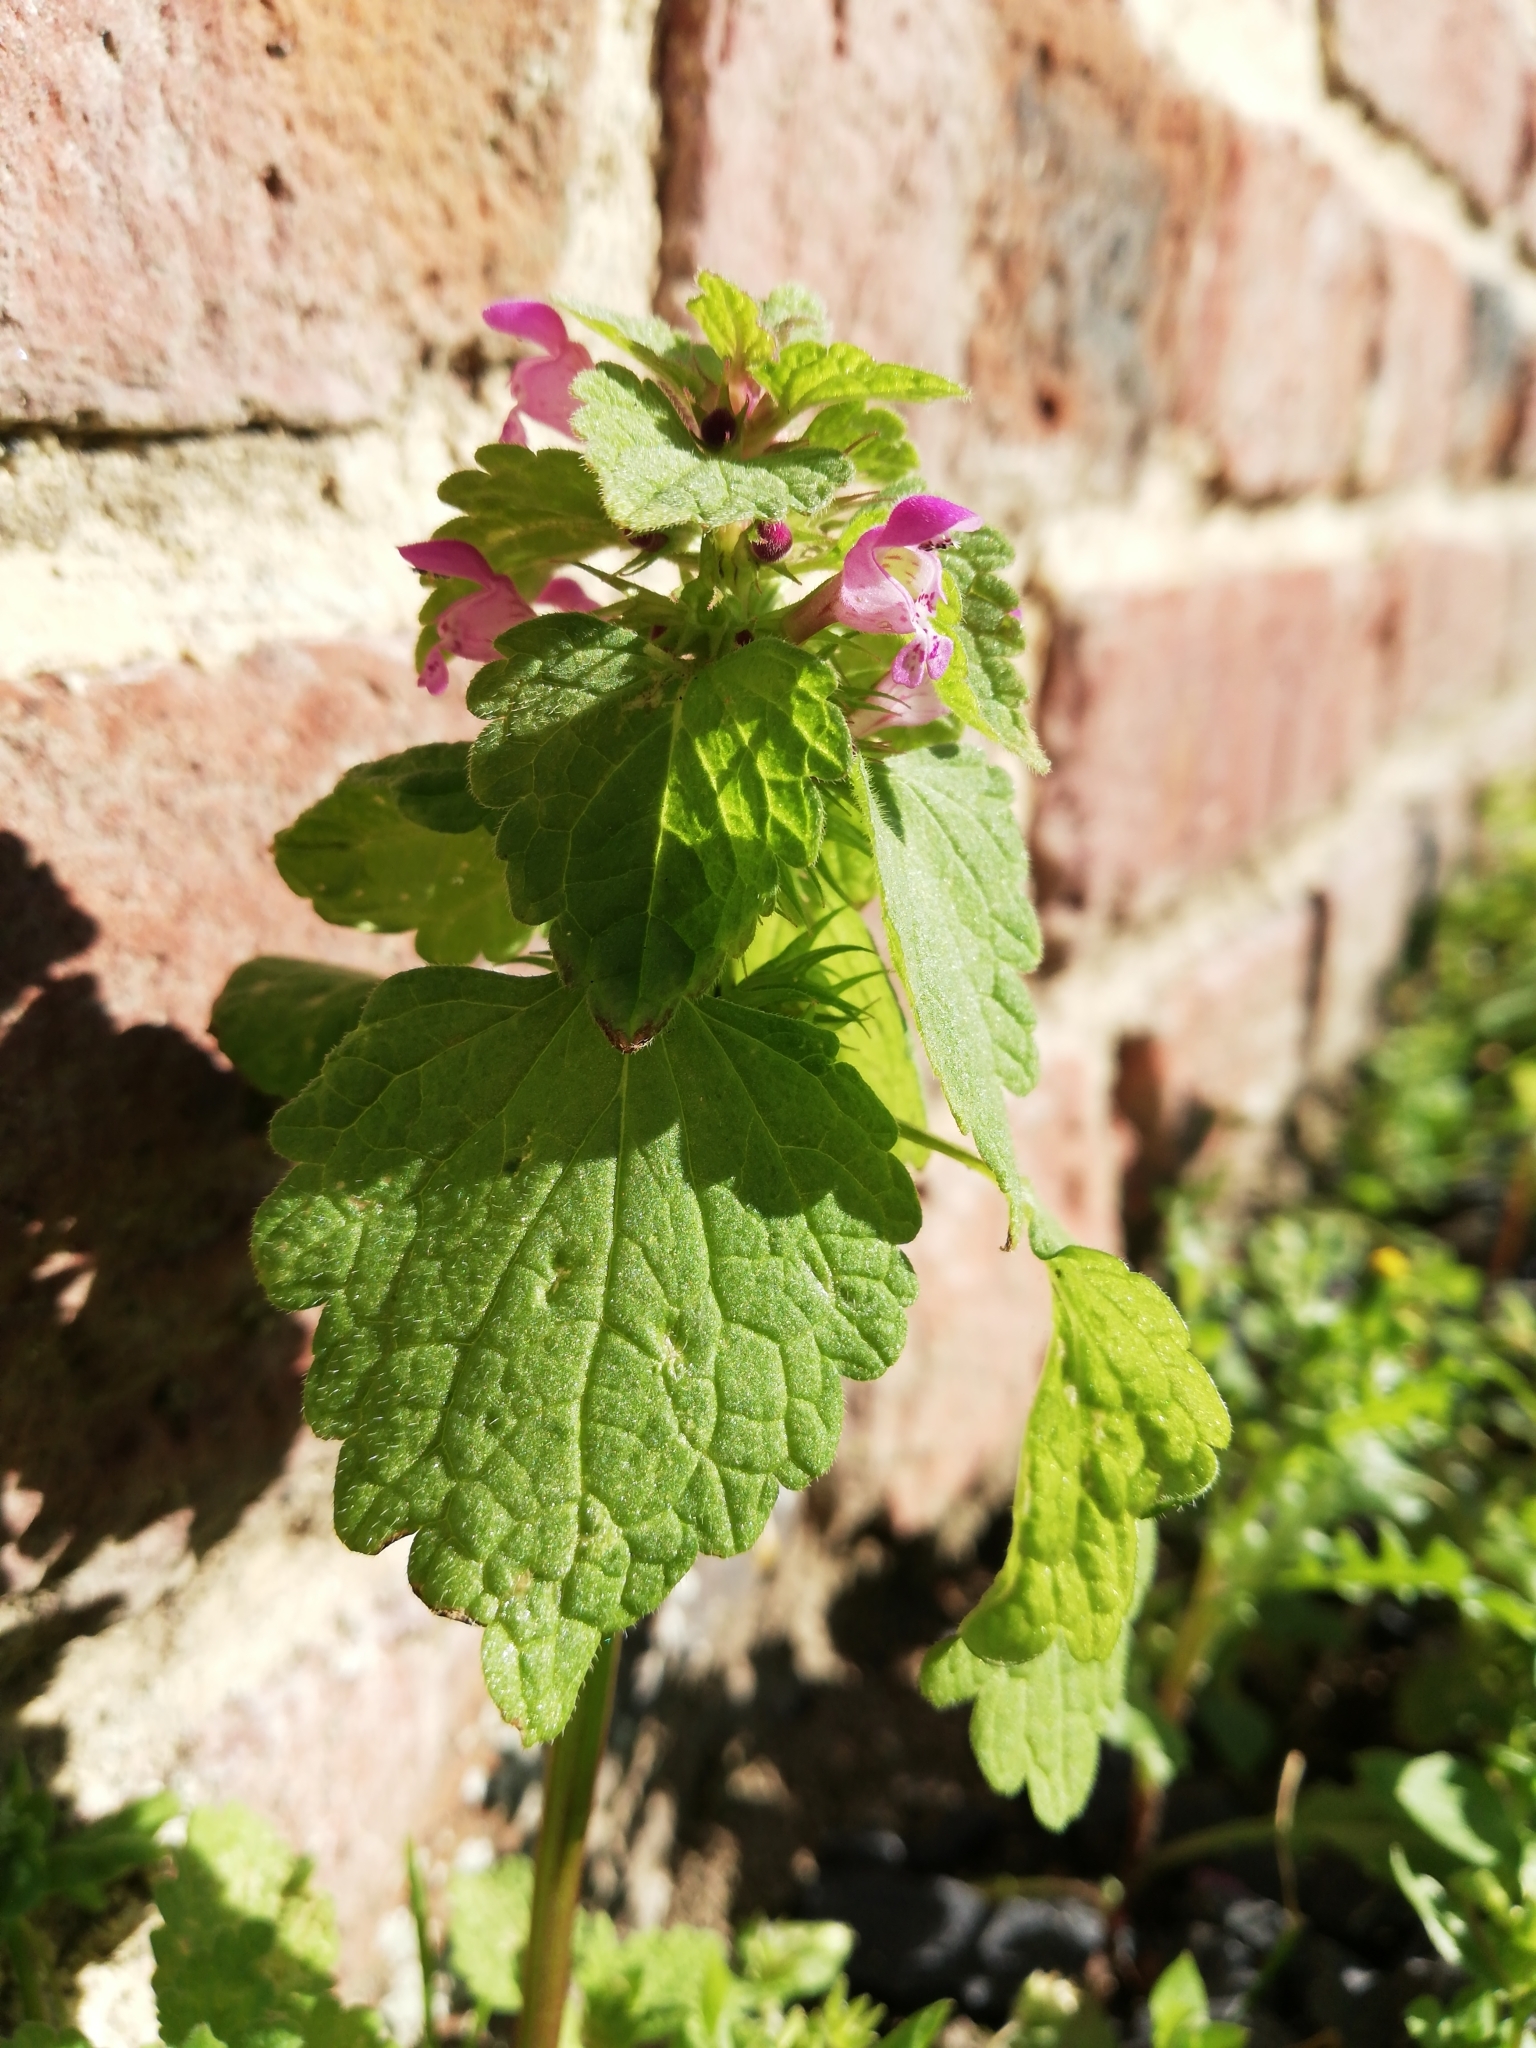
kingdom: Plantae
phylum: Tracheophyta
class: Magnoliopsida
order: Lamiales
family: Lamiaceae
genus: Lamium
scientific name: Lamium purpureum
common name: Red dead-nettle
